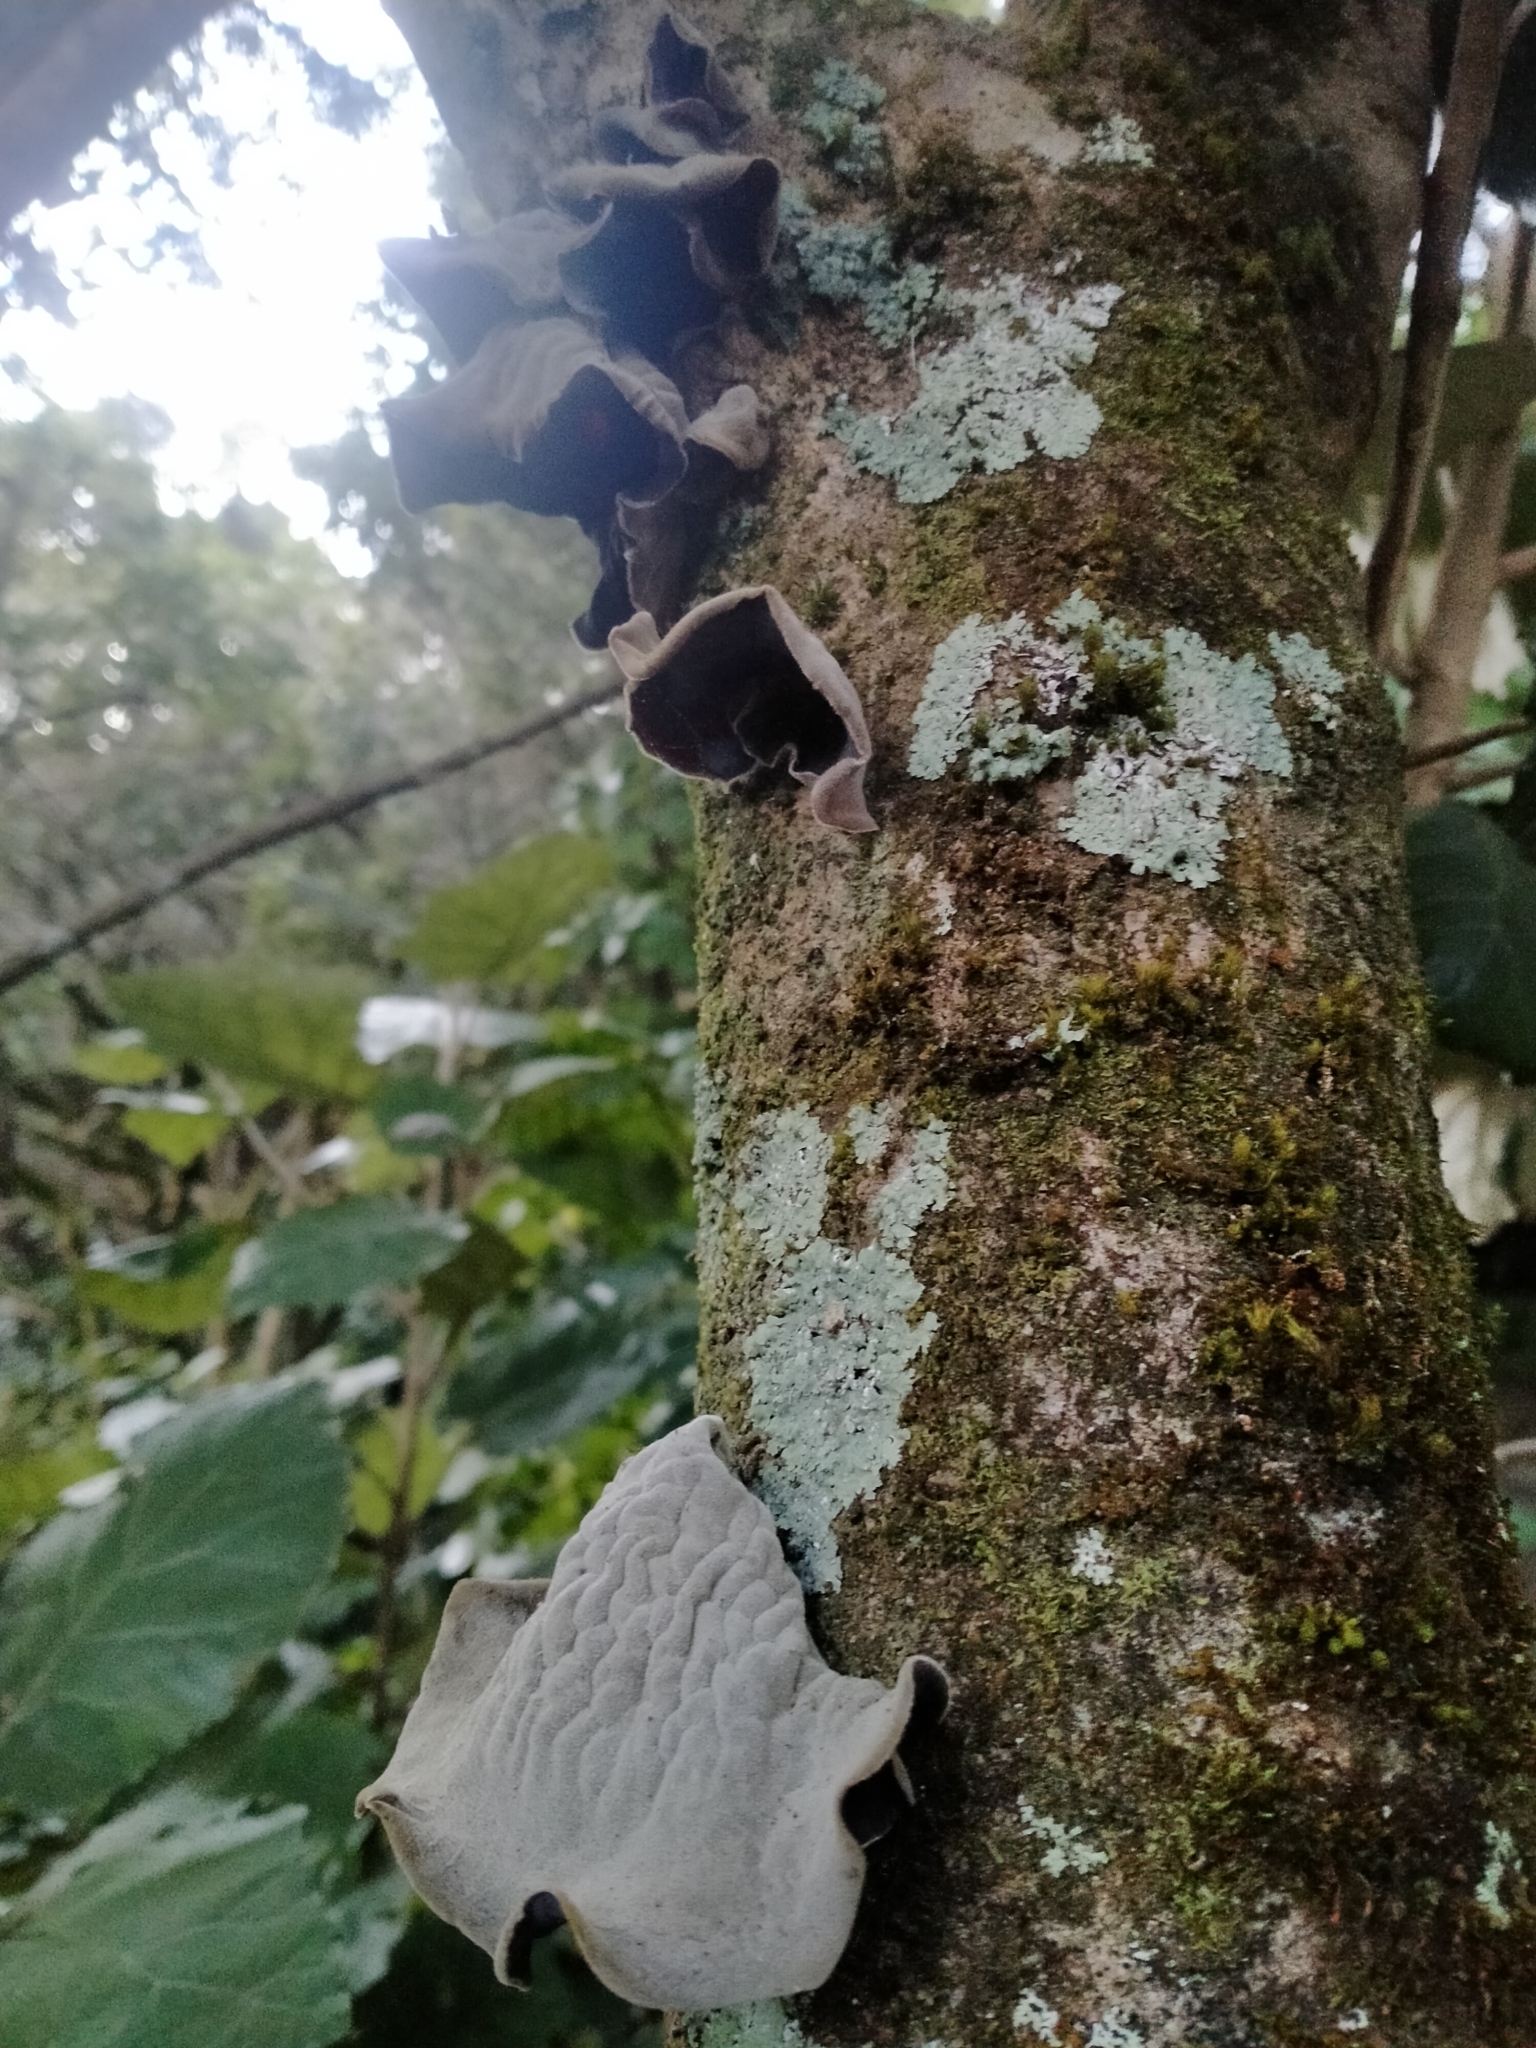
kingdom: Fungi
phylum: Basidiomycota
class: Agaricomycetes
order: Auriculariales
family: Auriculariaceae
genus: Auricularia
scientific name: Auricularia cornea
